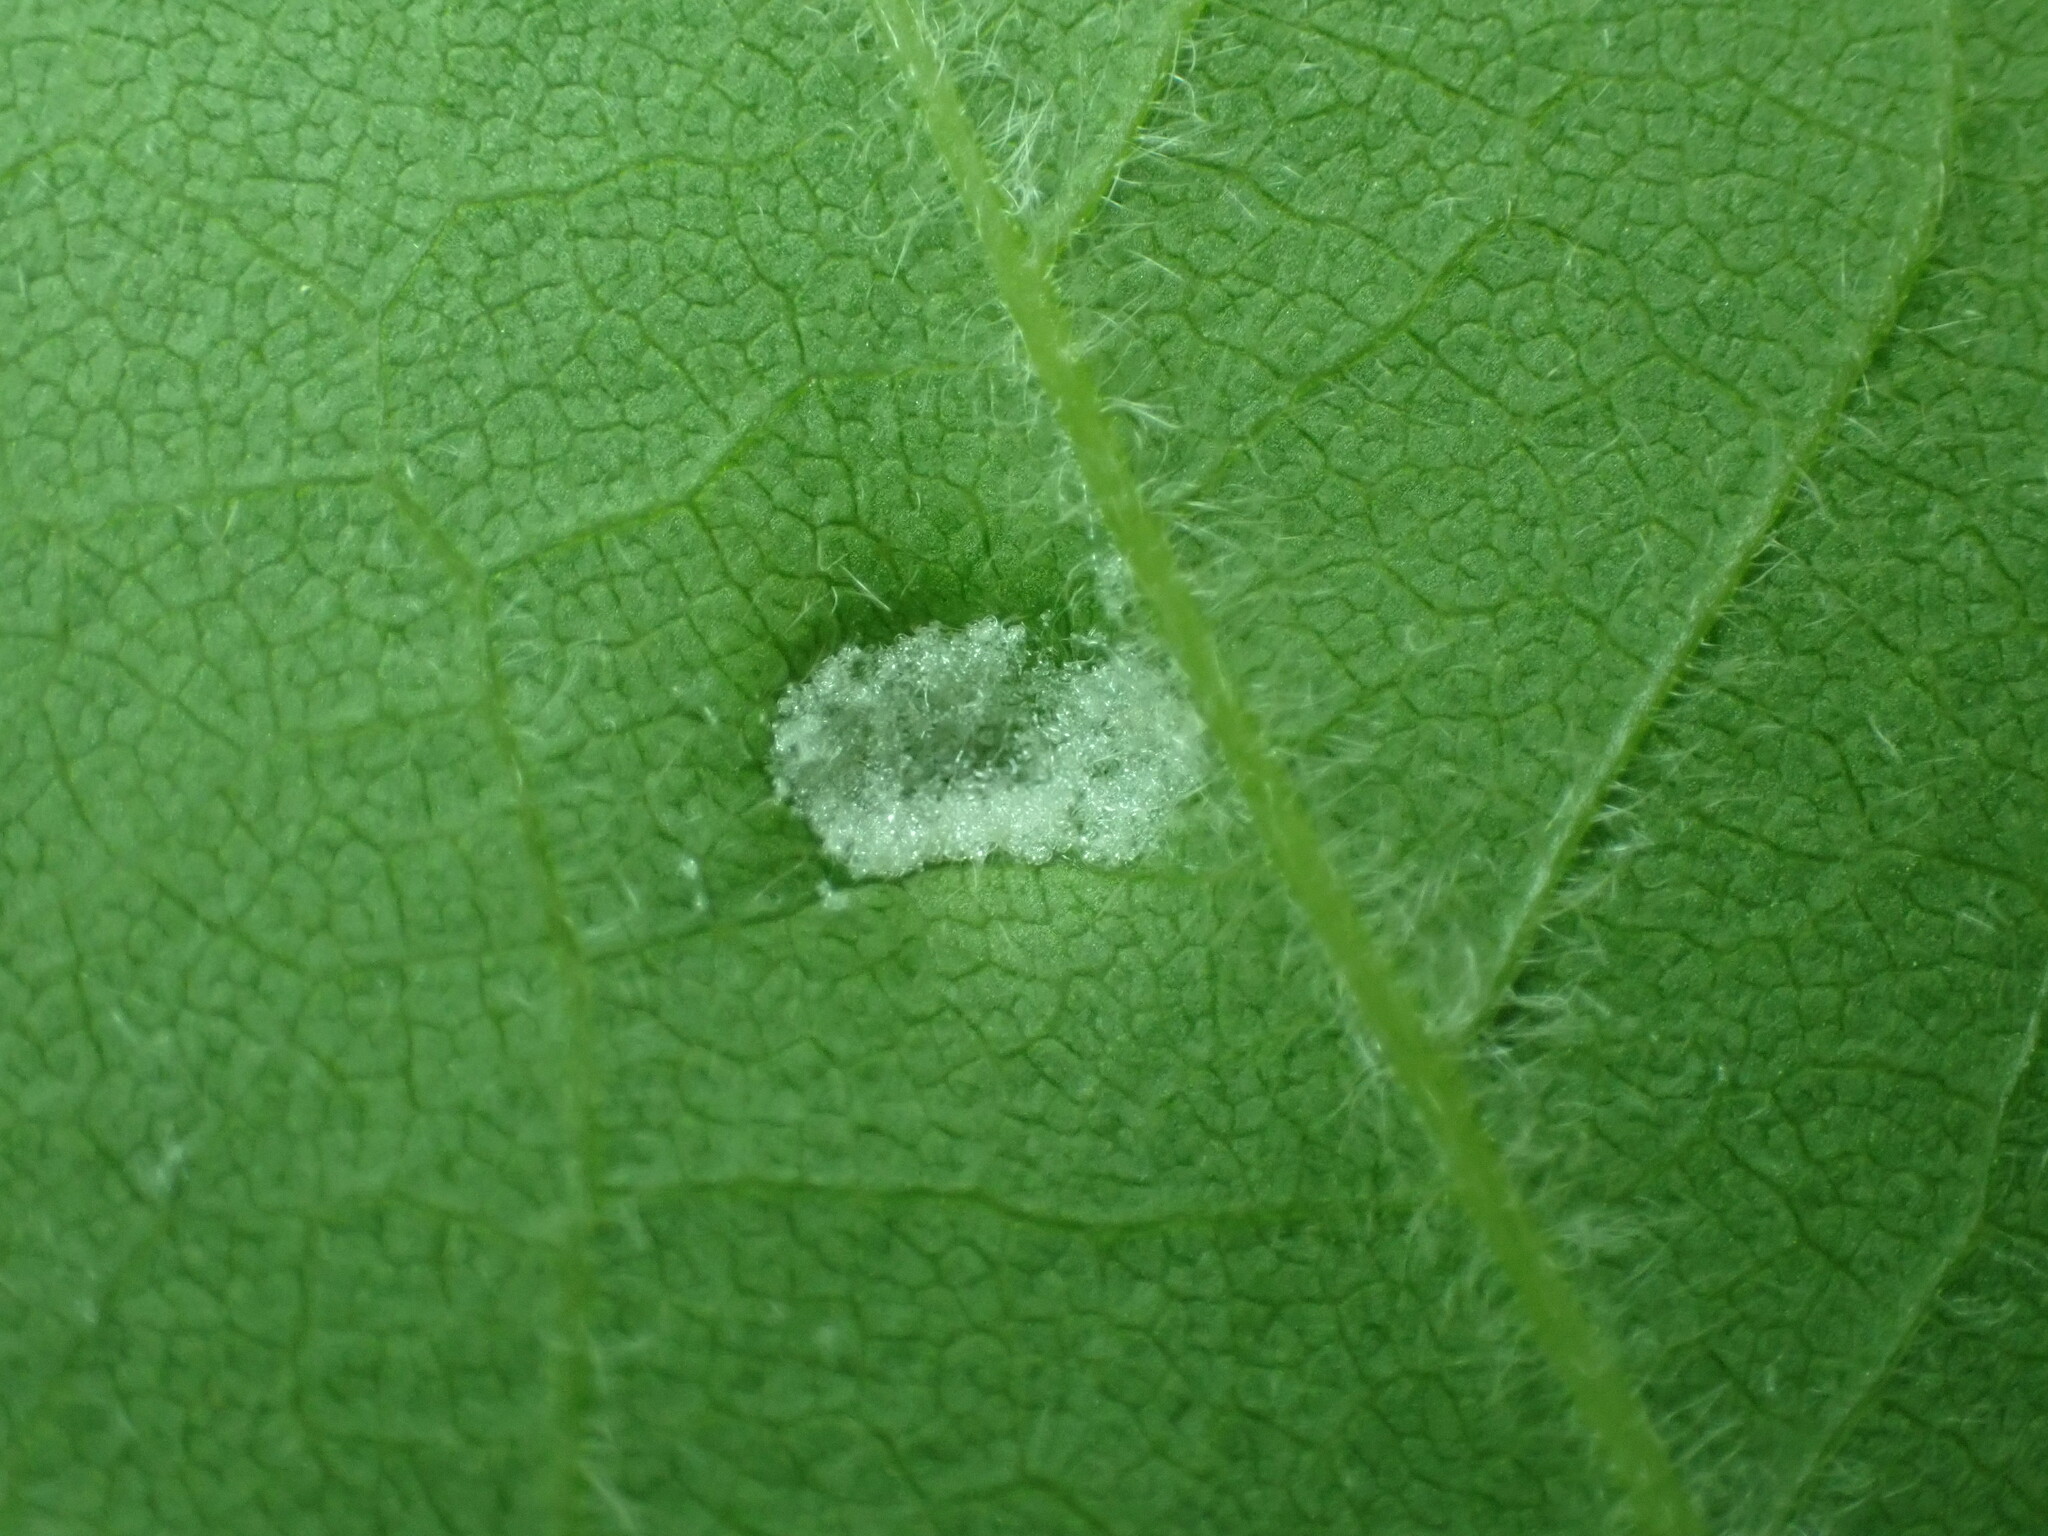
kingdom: Animalia
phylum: Arthropoda
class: Arachnida
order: Trombidiformes
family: Eriophyidae
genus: Aceria
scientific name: Aceria
